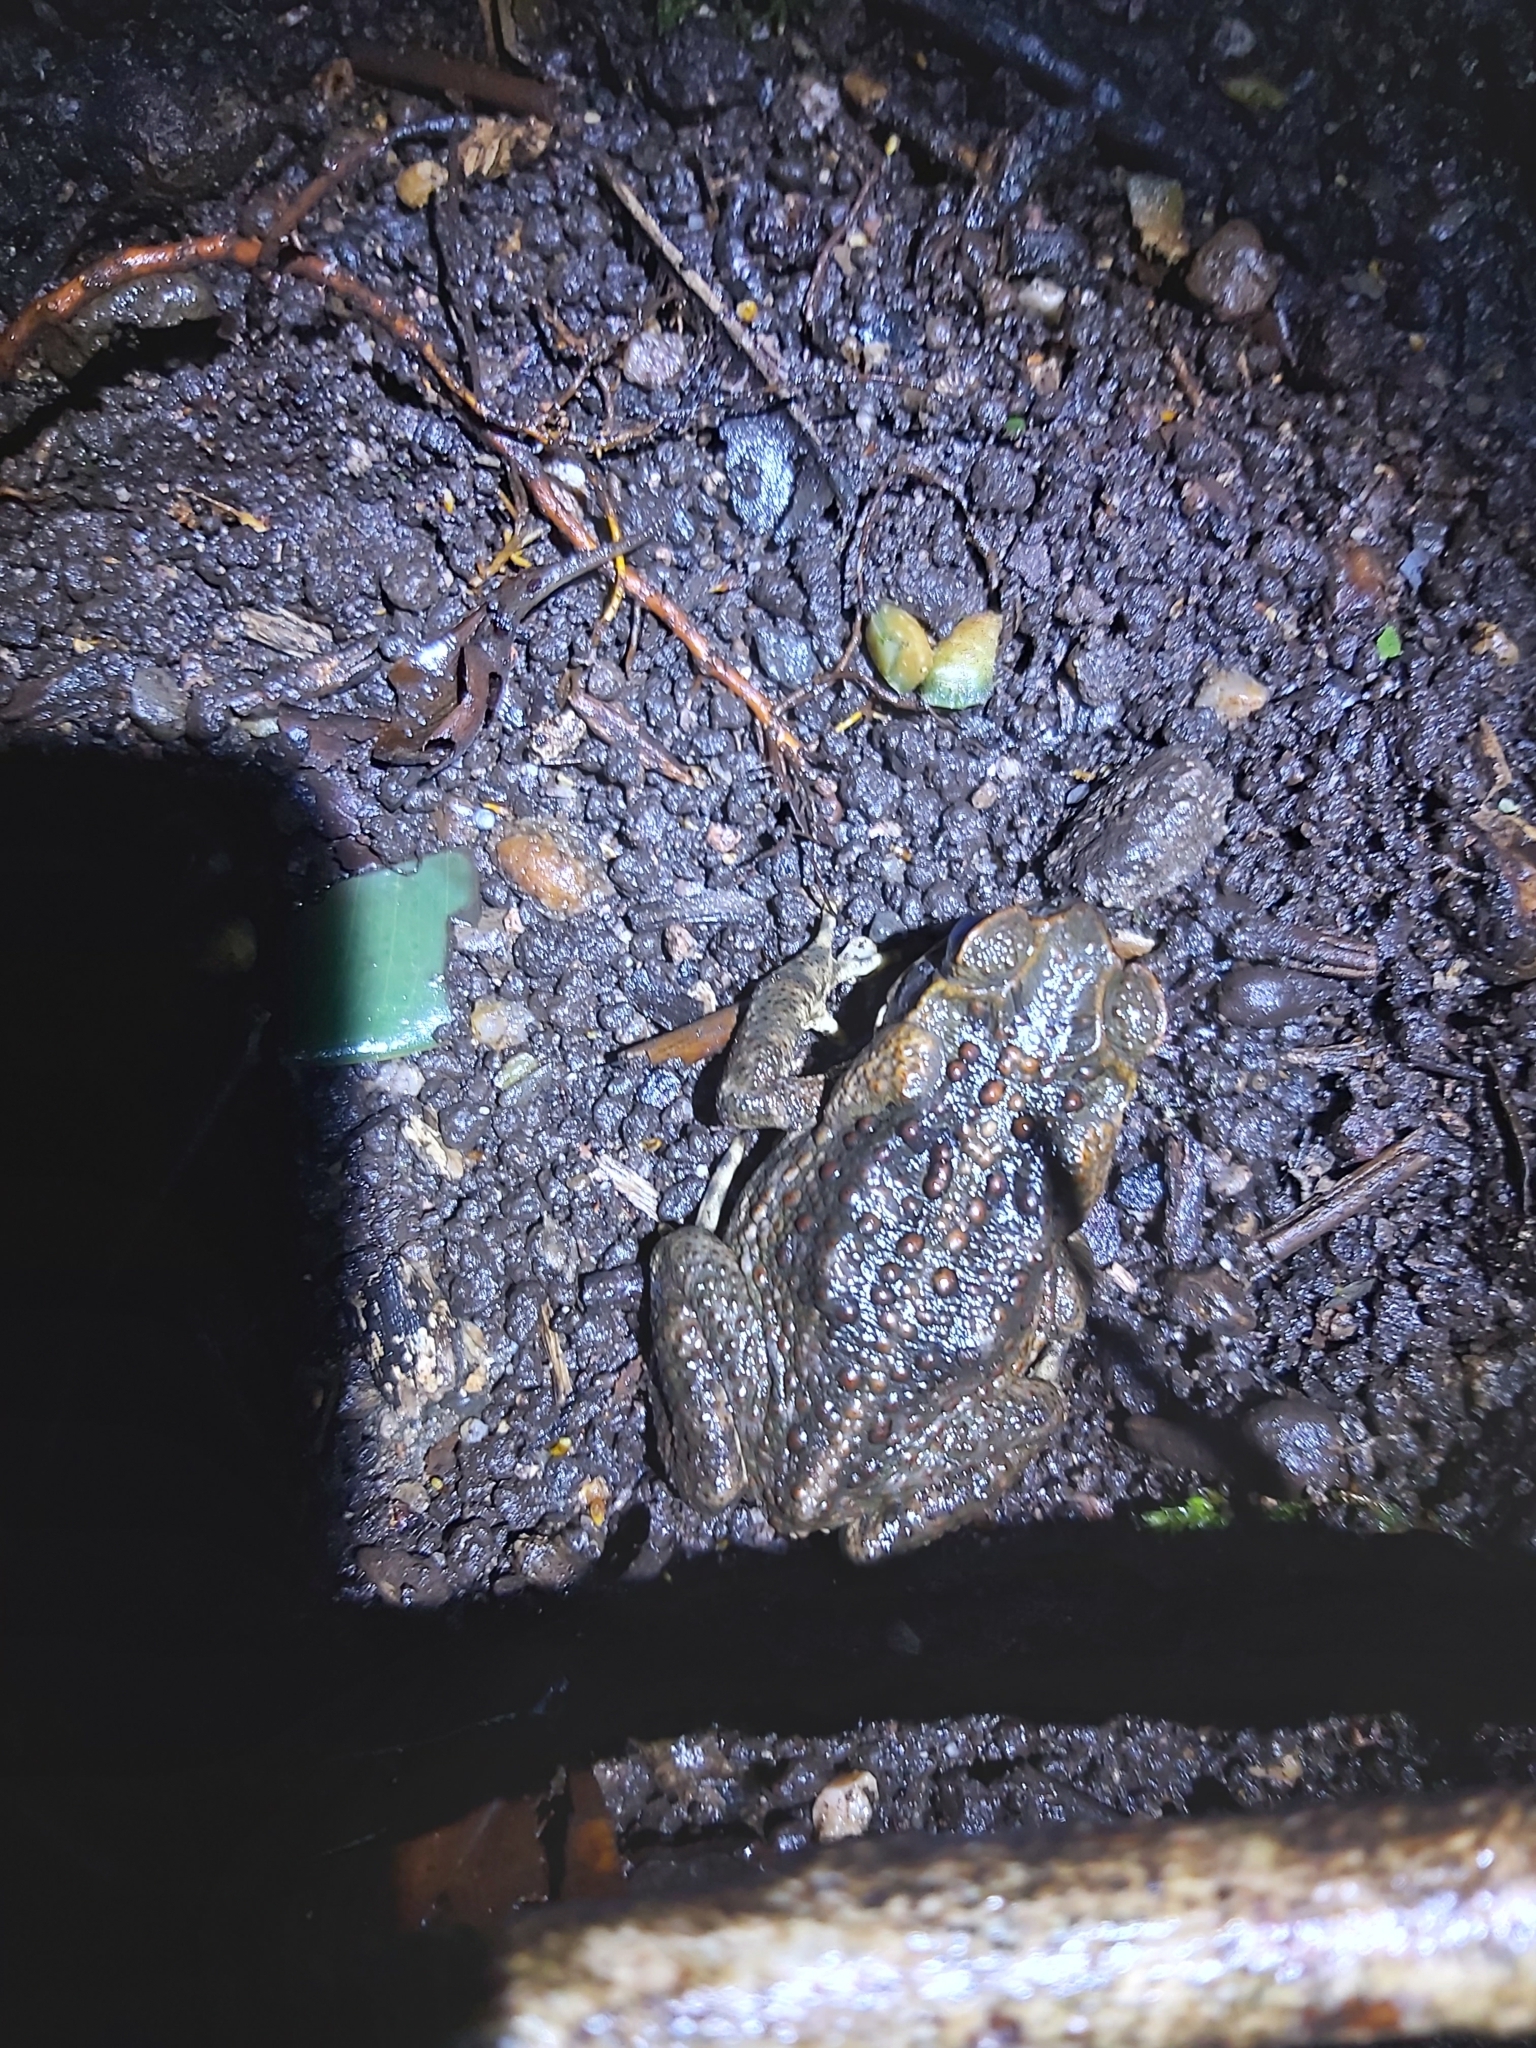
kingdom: Animalia
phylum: Chordata
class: Amphibia
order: Anura
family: Bufonidae
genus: Rhinella
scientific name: Rhinella marina
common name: Cane toad
